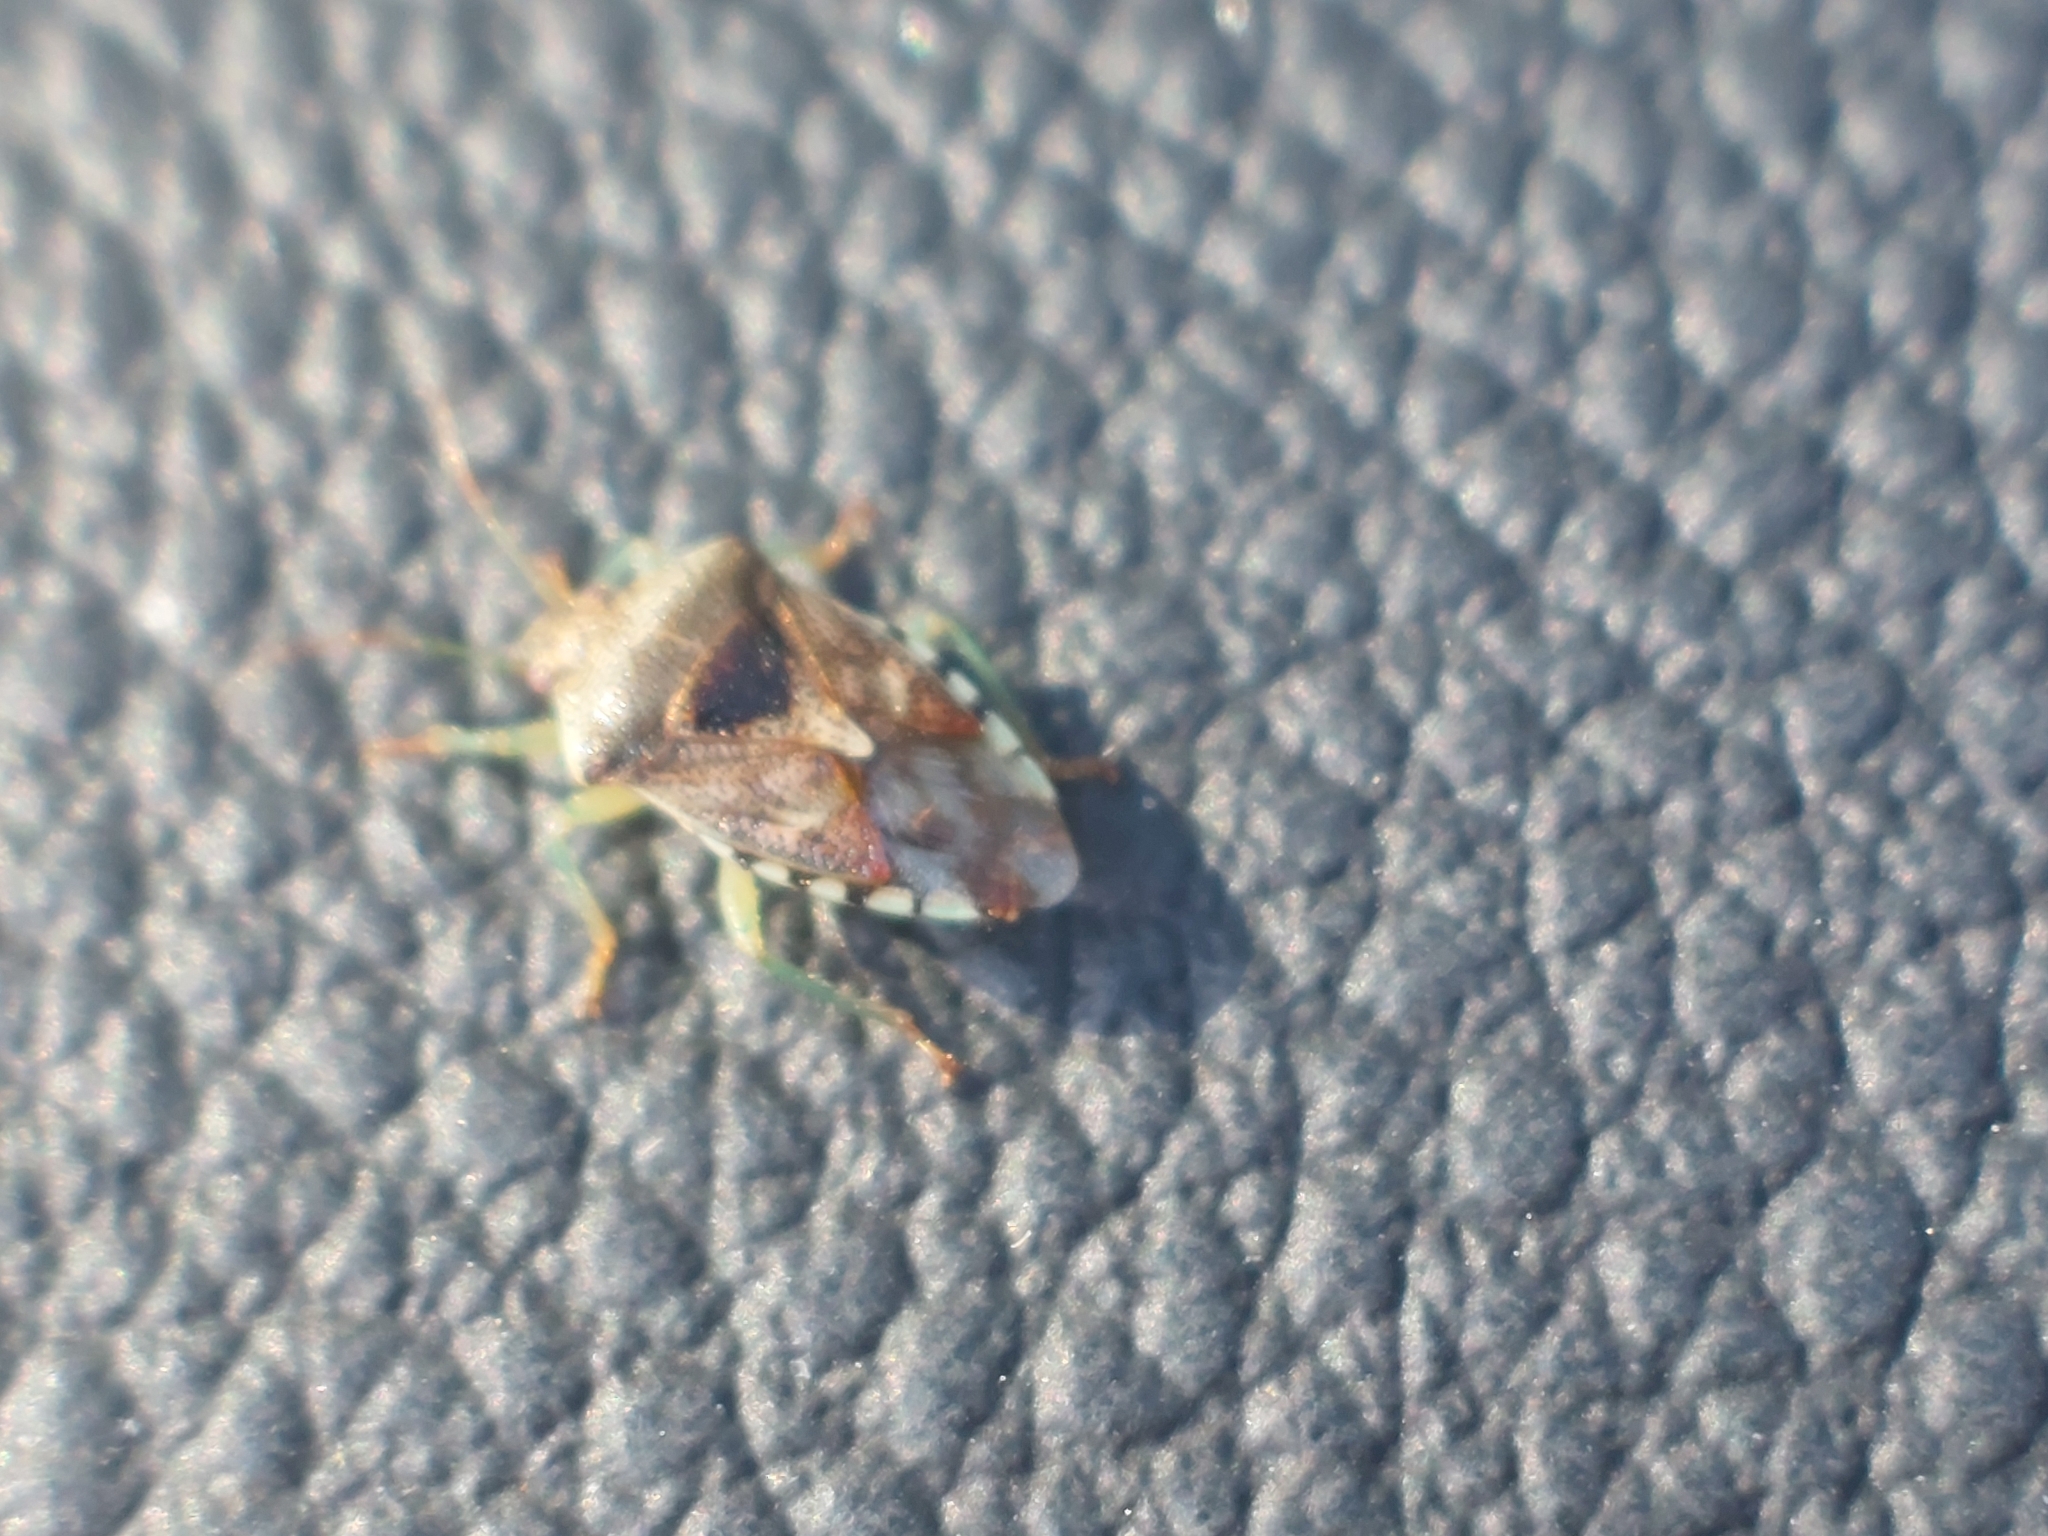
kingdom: Animalia
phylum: Arthropoda
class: Insecta
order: Hemiptera
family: Acanthosomatidae
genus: Elasmucha
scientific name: Elasmucha grisea
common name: Parent bug
